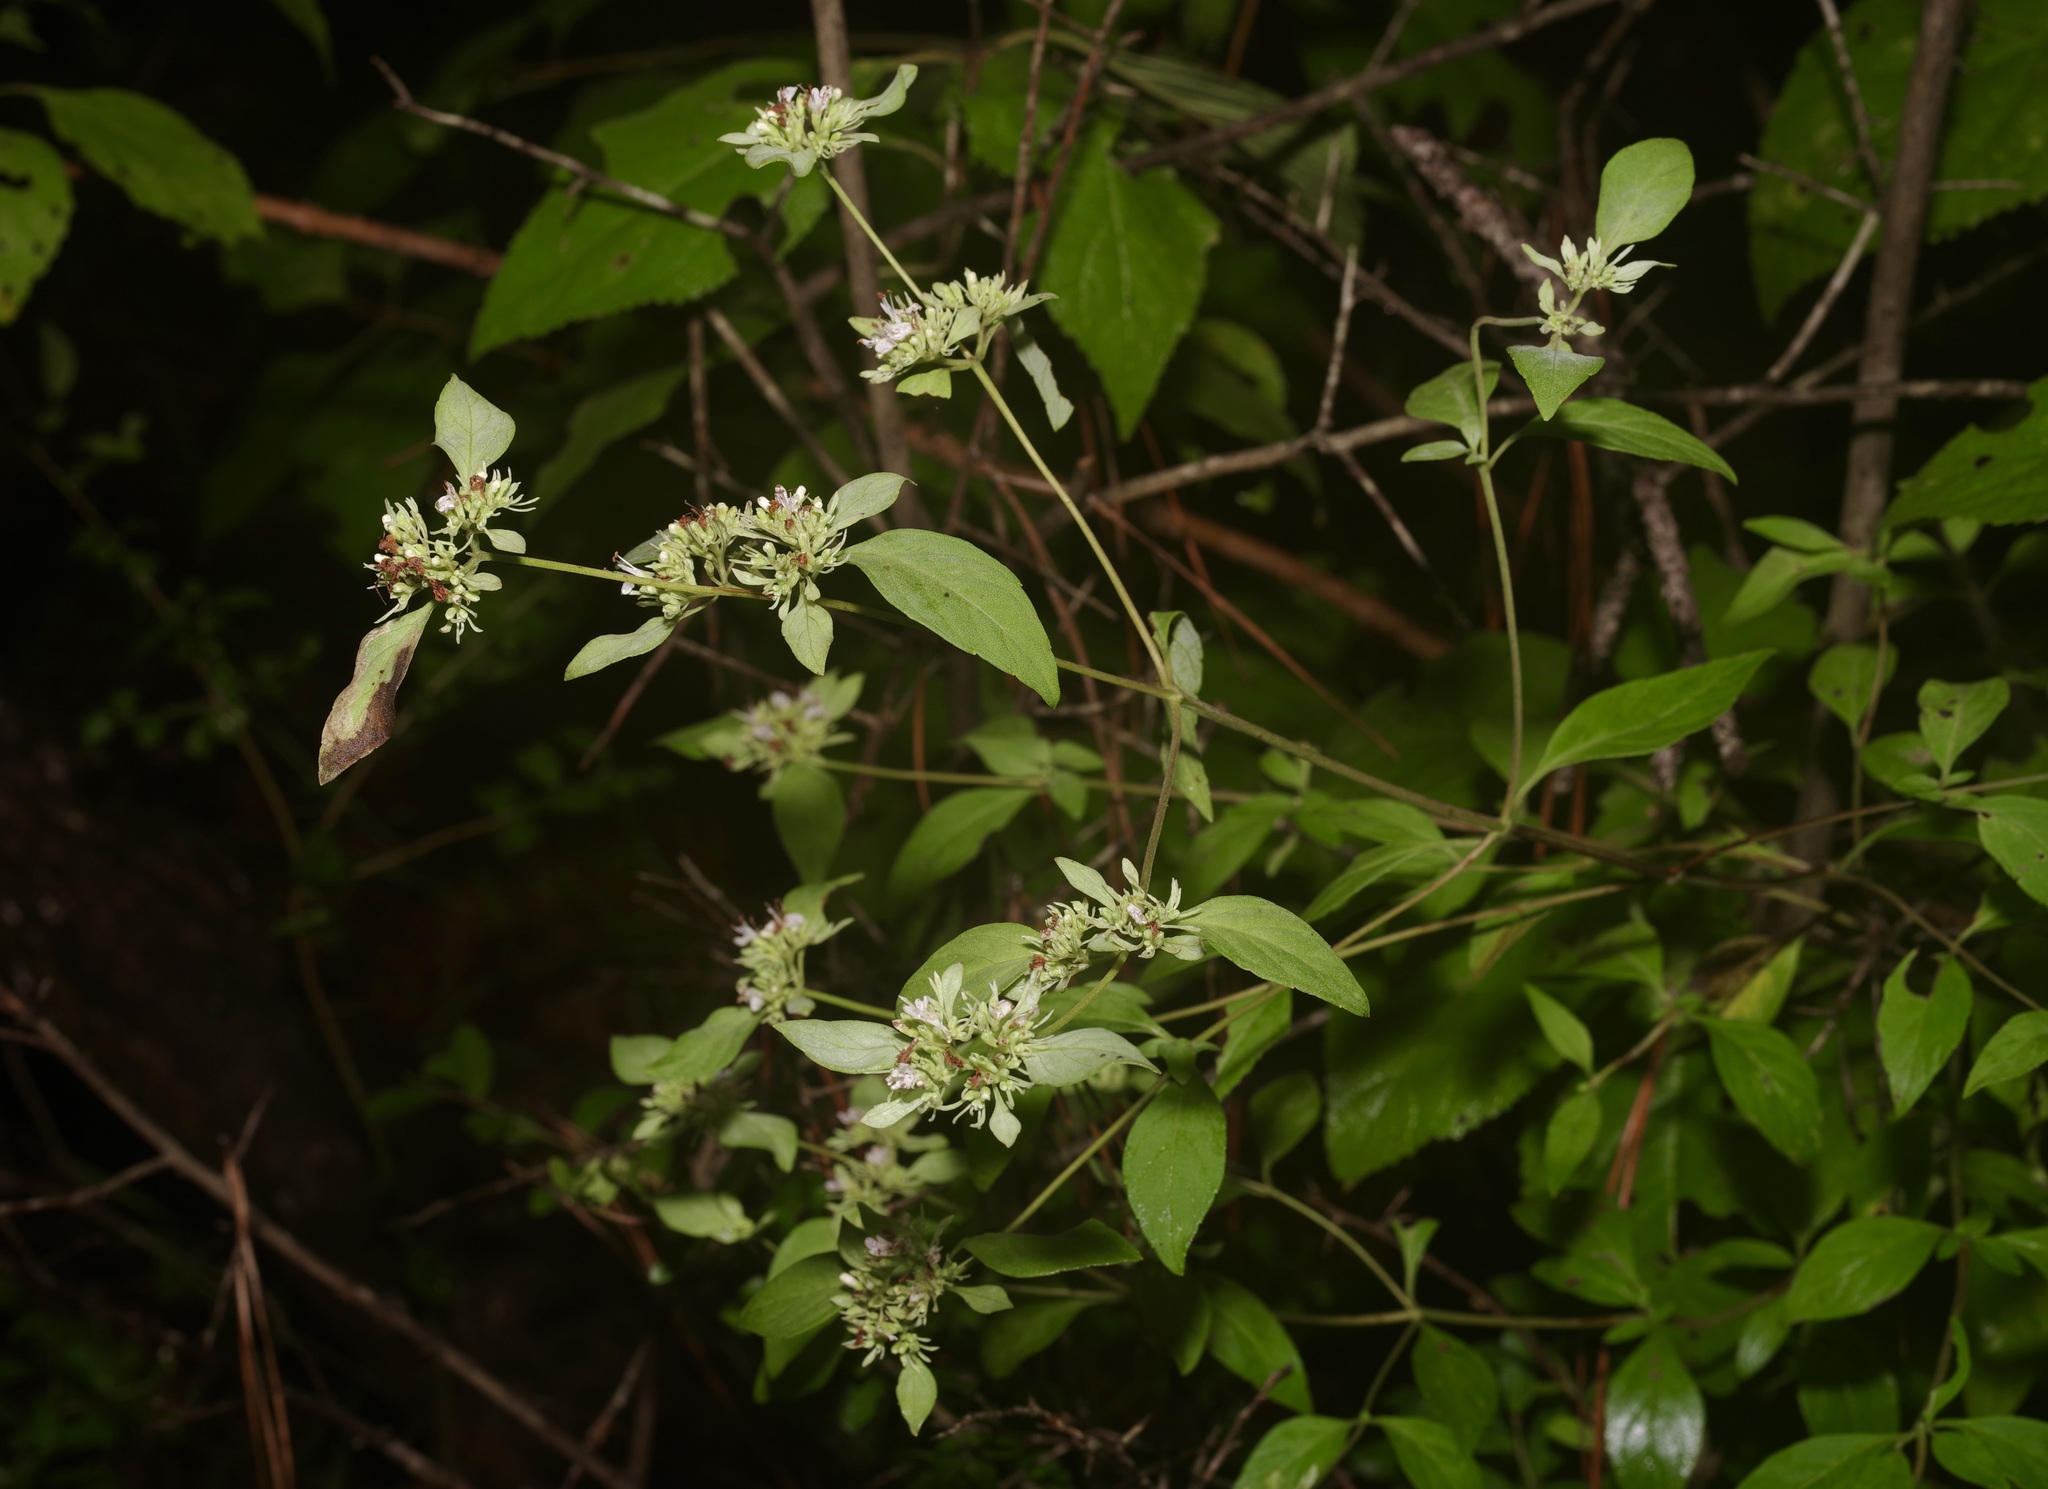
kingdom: Plantae
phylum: Tracheophyta
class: Magnoliopsida
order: Lamiales
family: Lamiaceae
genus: Pycnanthemum
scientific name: Pycnanthemum albescens
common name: White-leaf mountain-mint
